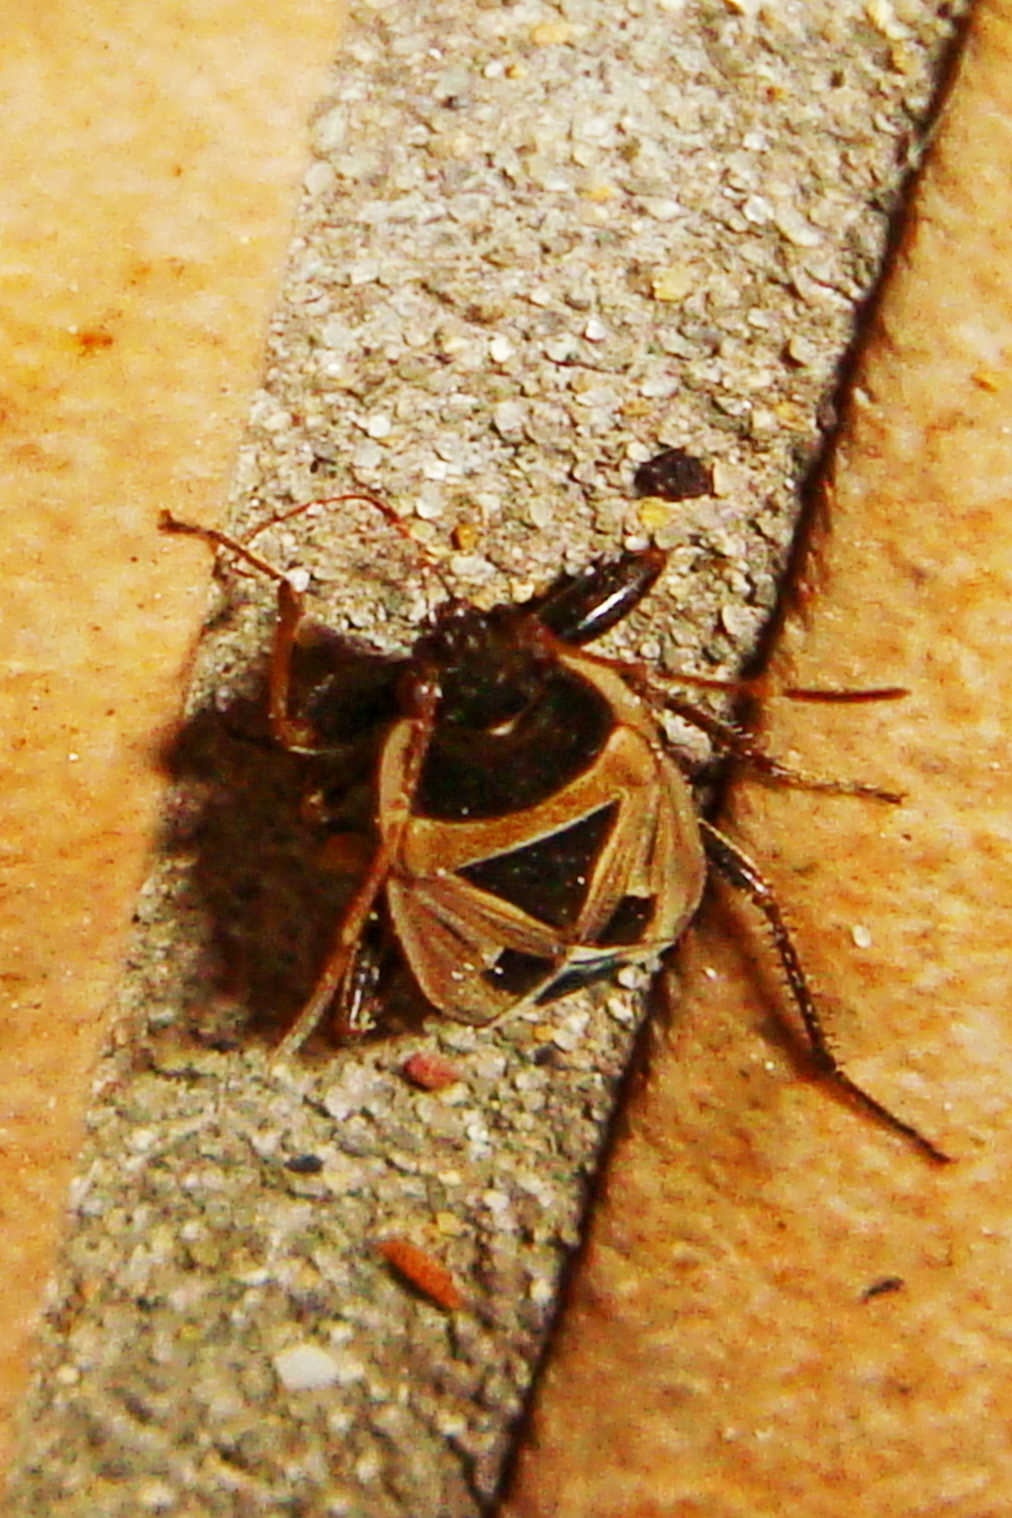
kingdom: Animalia
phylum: Arthropoda
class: Insecta
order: Hemiptera
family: Rhyparochromidae
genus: Xanthochilus
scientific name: Xanthochilus saturnius
